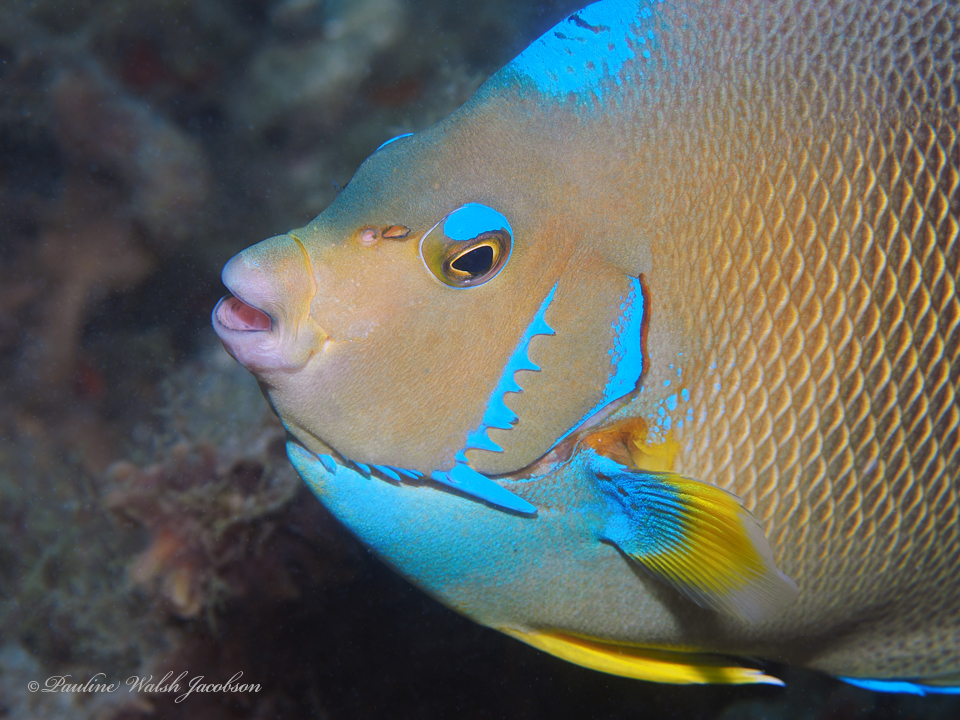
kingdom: Animalia
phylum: Chordata
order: Perciformes
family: Pomacanthidae
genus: Holacanthus
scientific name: Holacanthus ciliaris
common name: Queen angelfish
